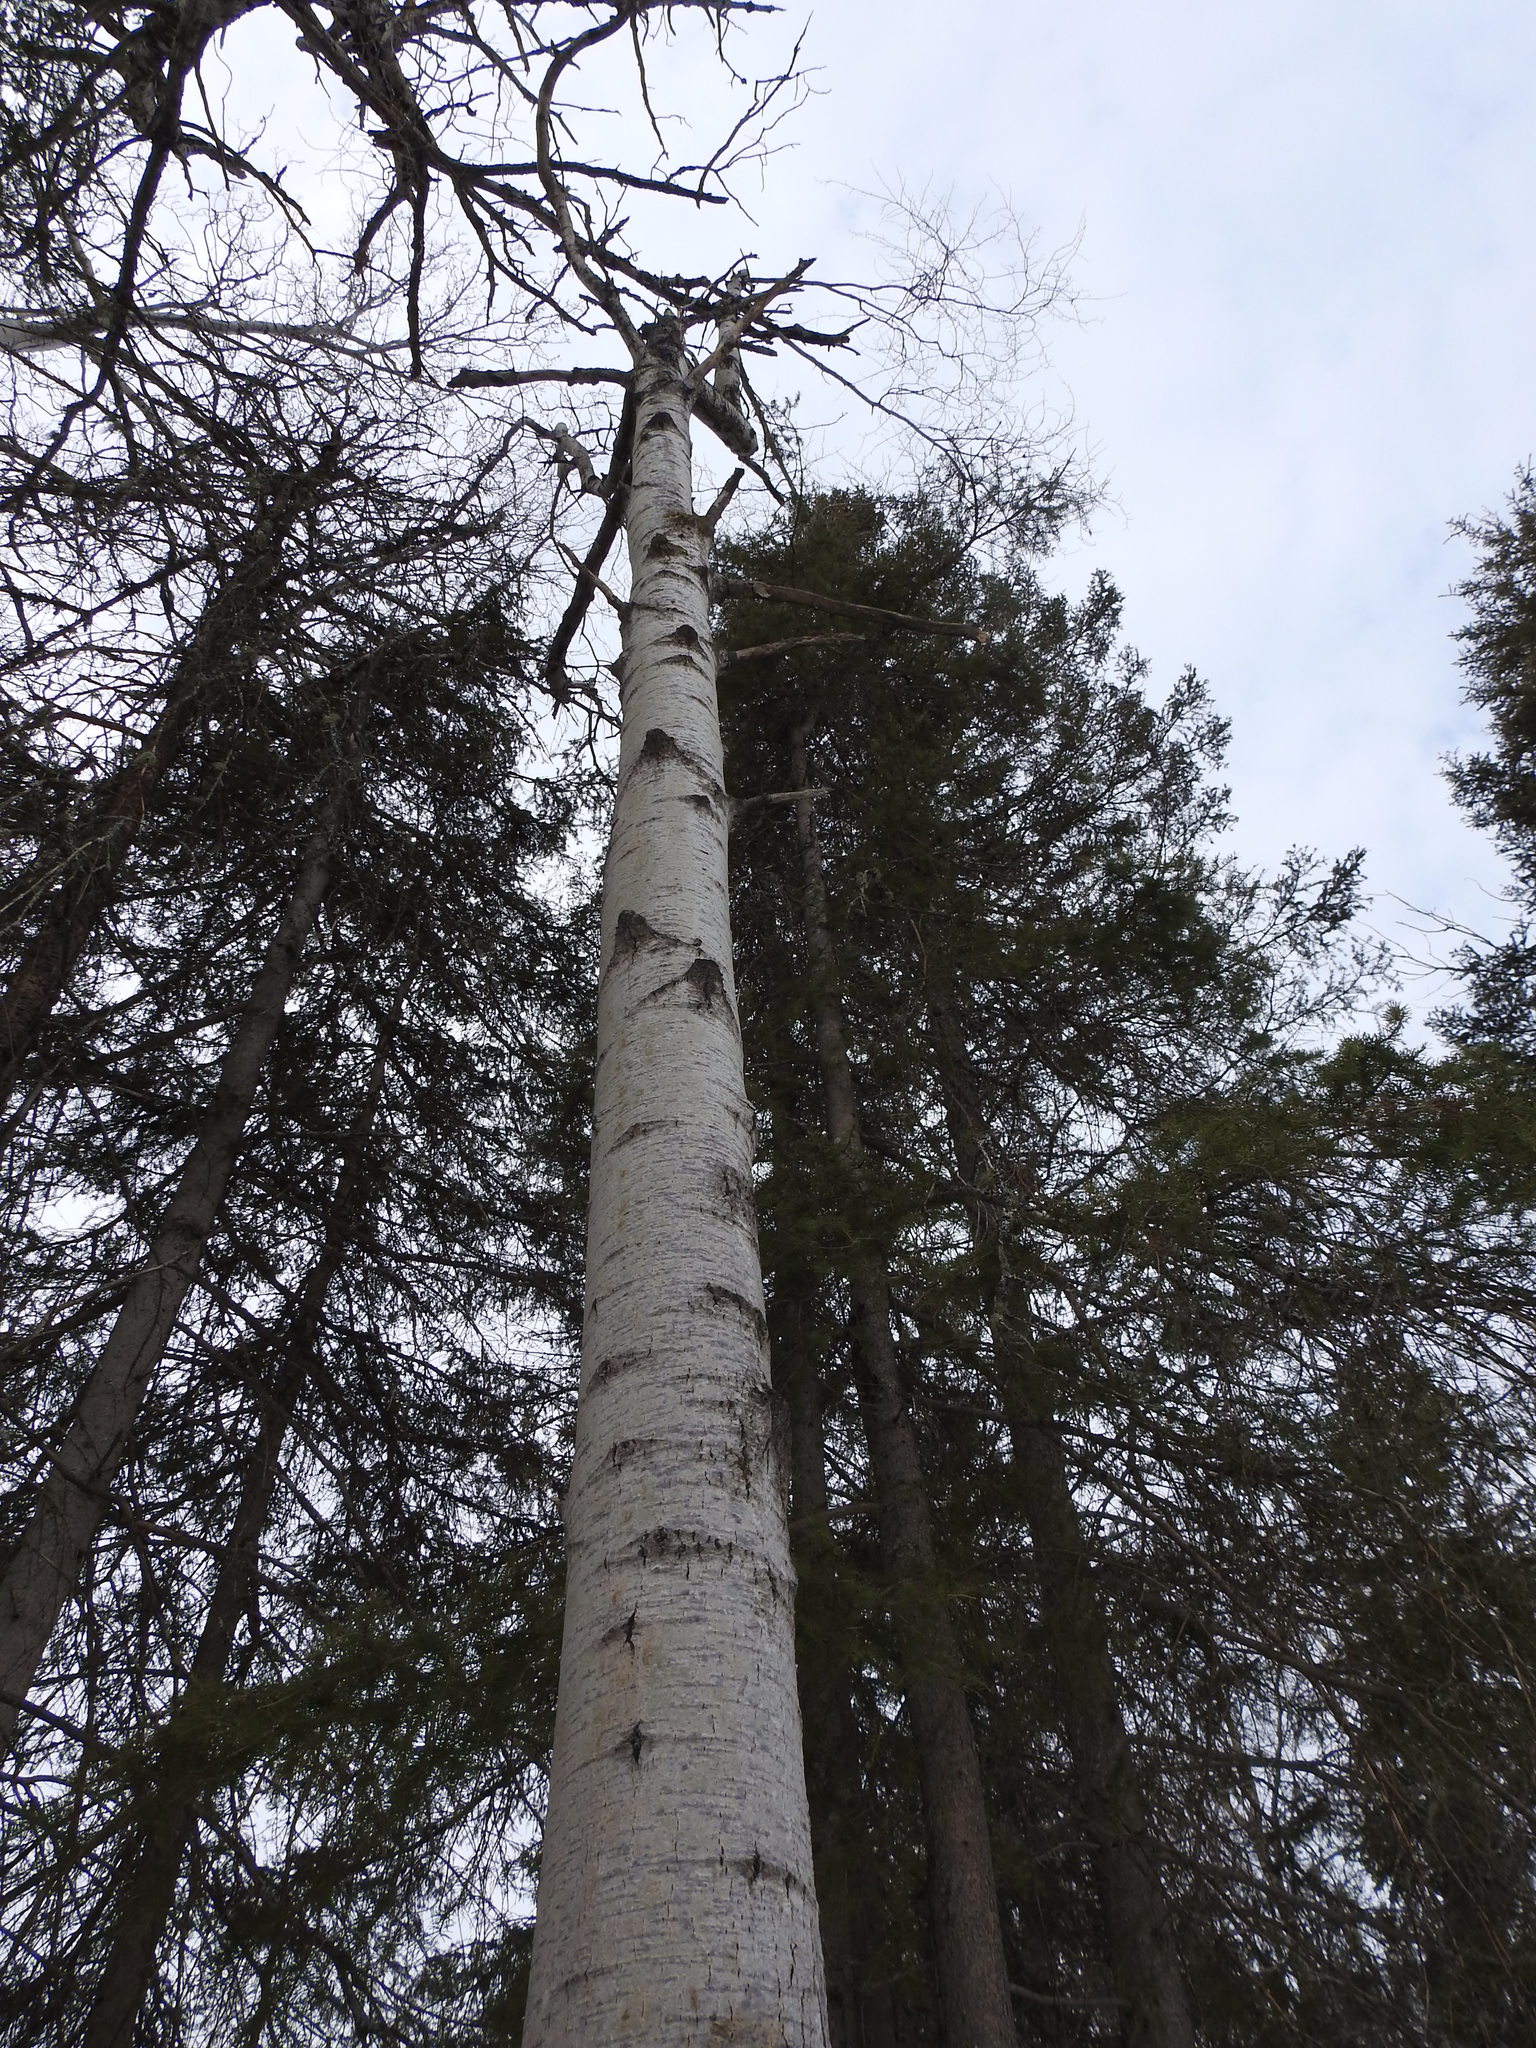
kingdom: Plantae
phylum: Tracheophyta
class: Magnoliopsida
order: Malpighiales
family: Salicaceae
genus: Populus
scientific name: Populus tremuloides
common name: Quaking aspen
